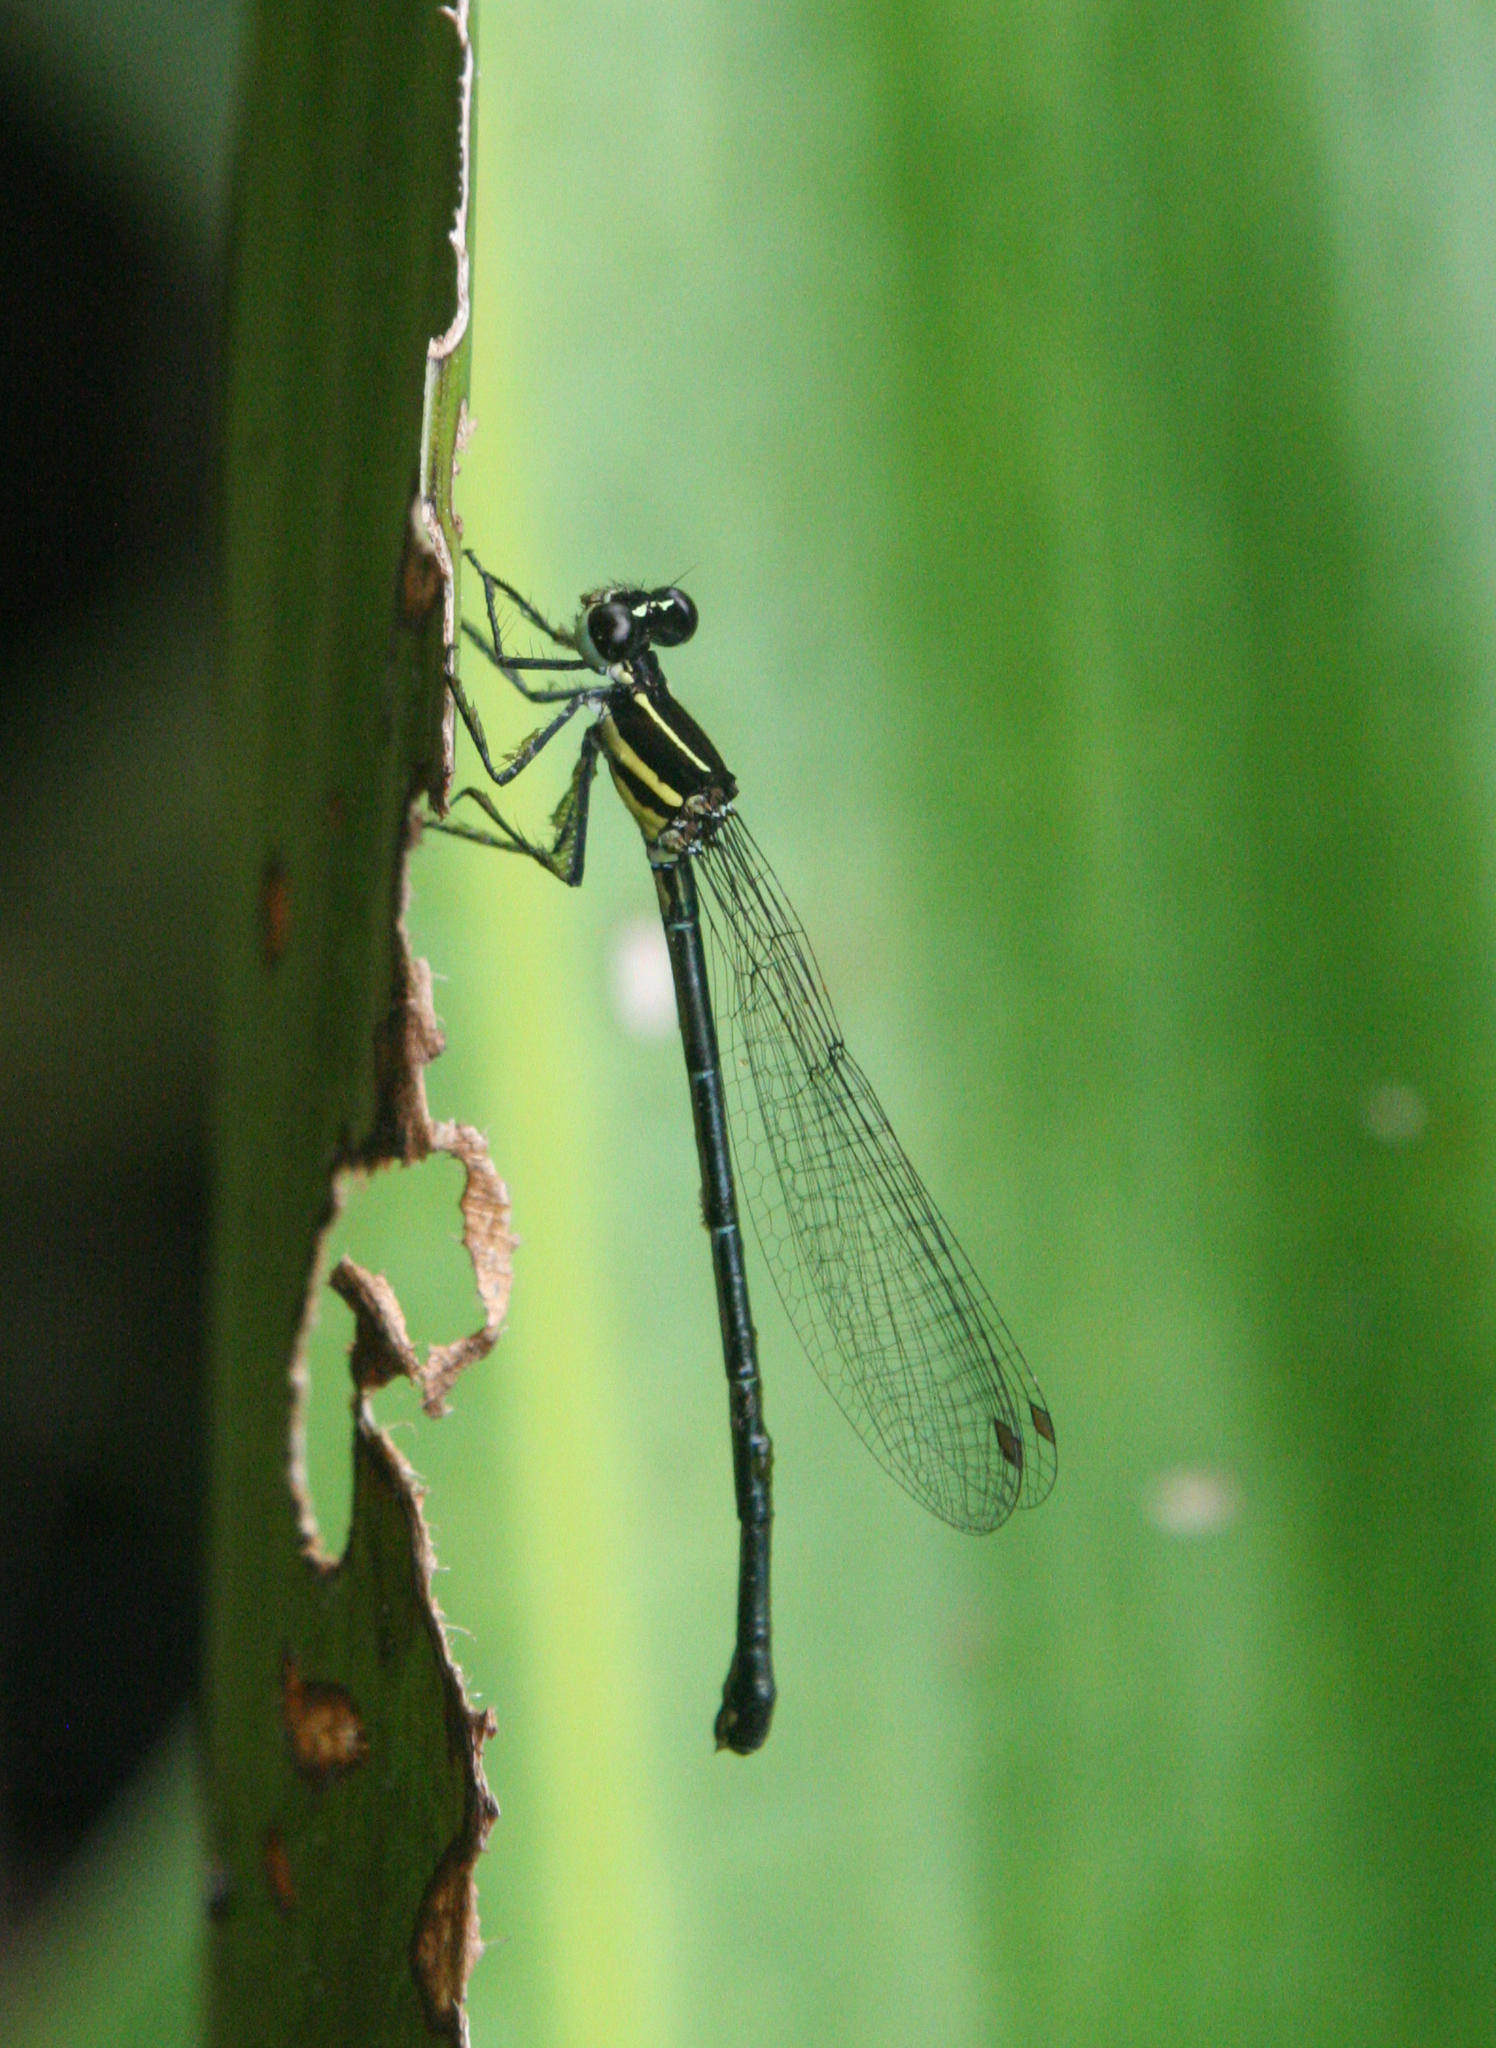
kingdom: Animalia
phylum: Arthropoda
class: Insecta
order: Odonata
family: Platycnemididae
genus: Onychargia
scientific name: Onychargia atrocyana
